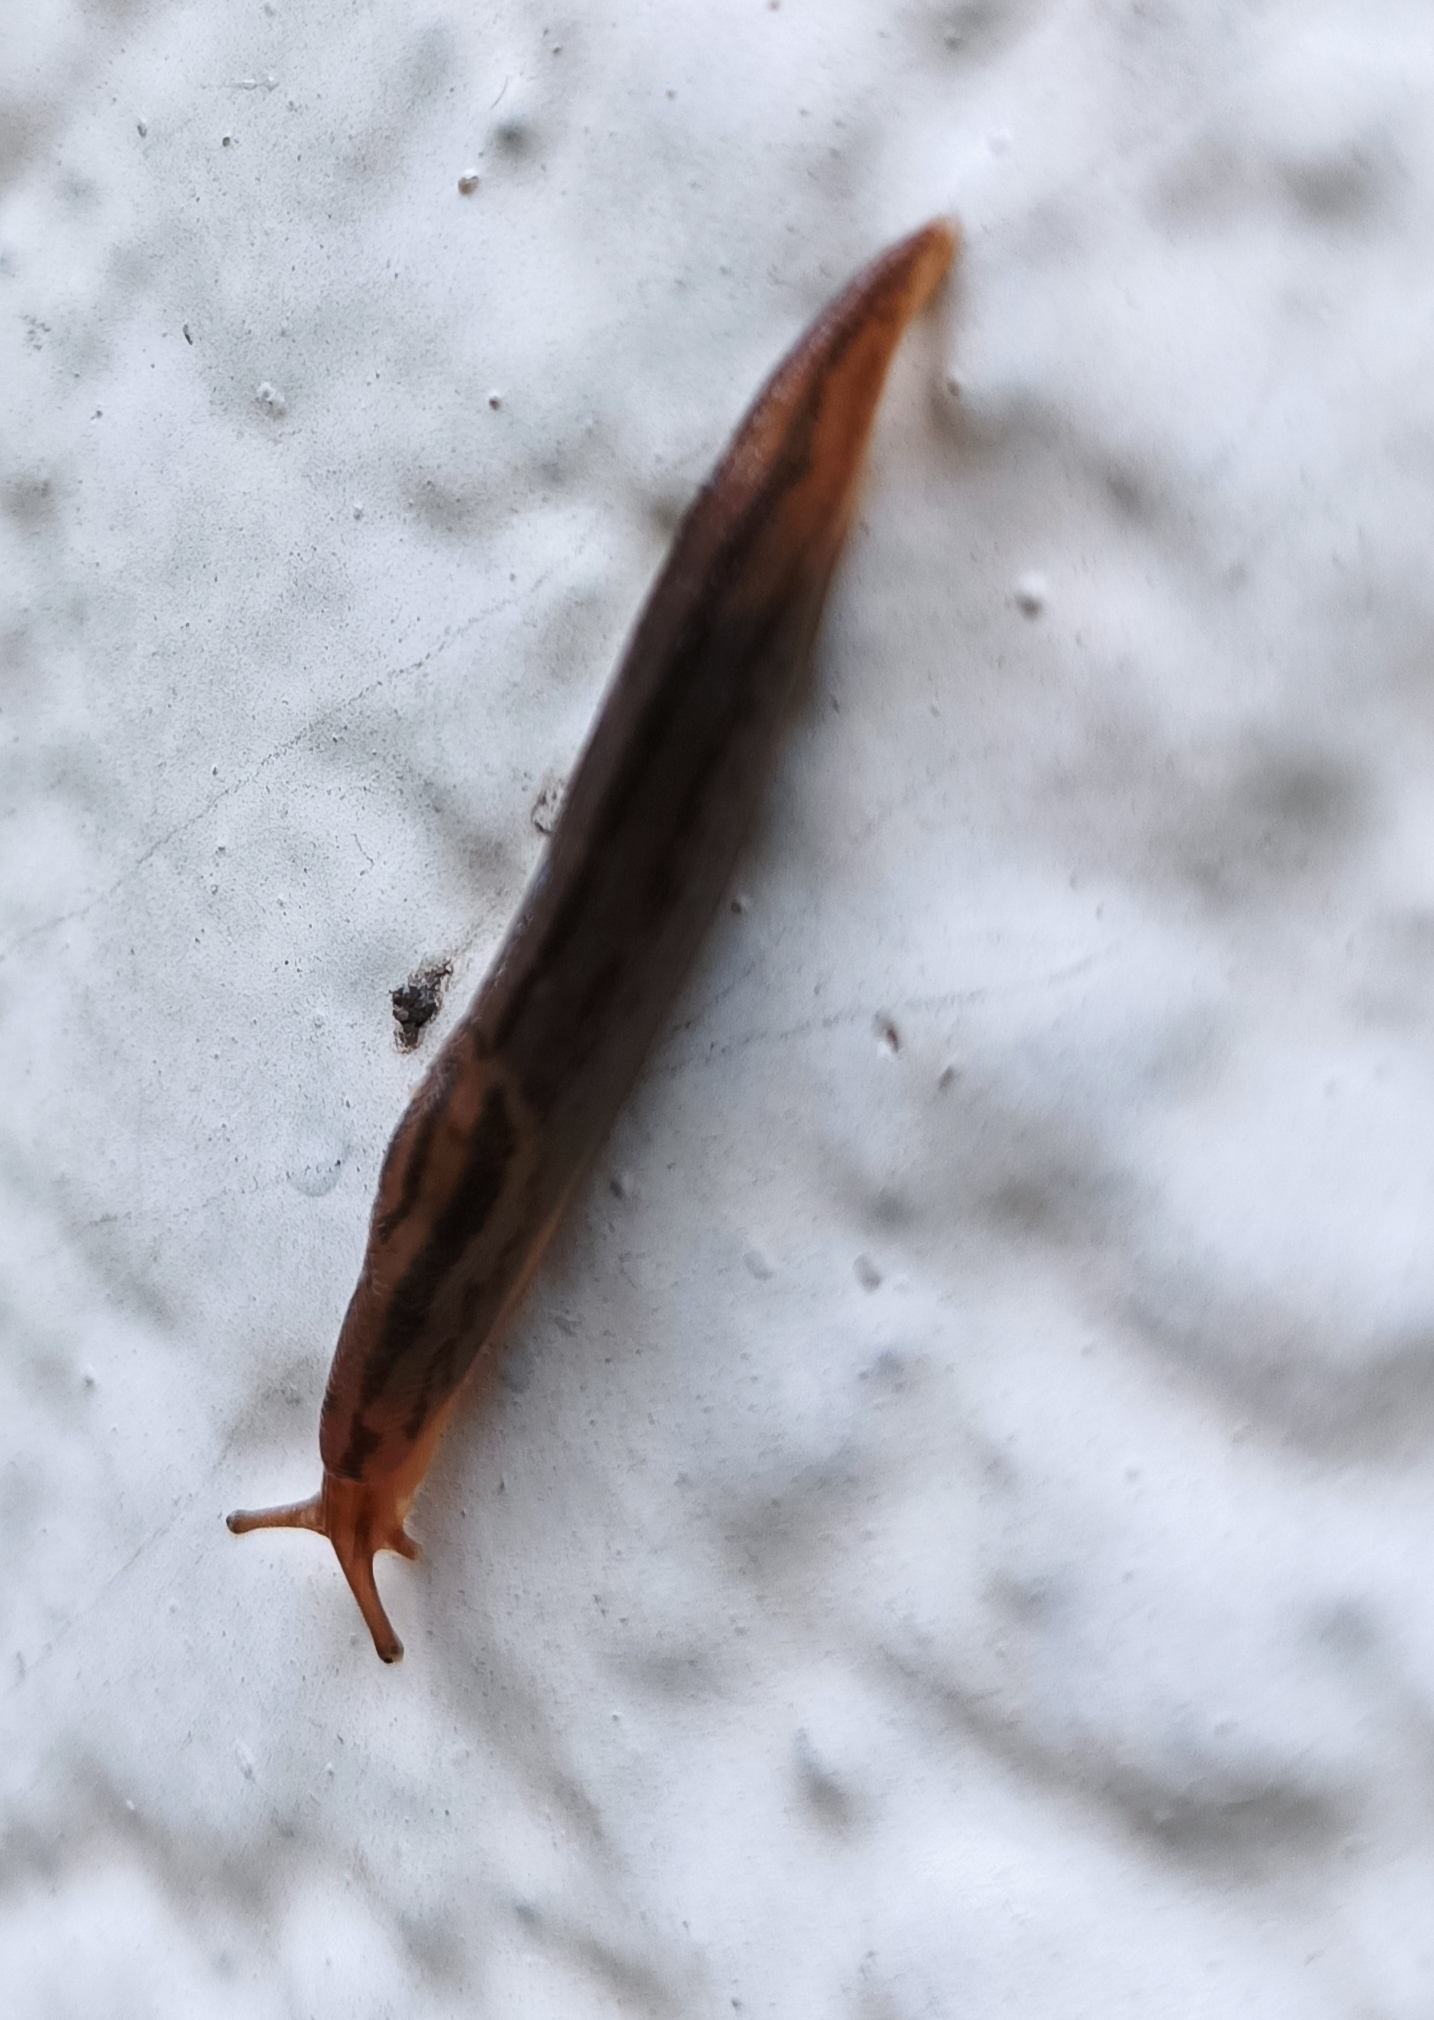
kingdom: Animalia
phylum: Mollusca
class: Gastropoda
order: Stylommatophora
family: Limacidae
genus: Ambigolimax
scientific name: Ambigolimax
